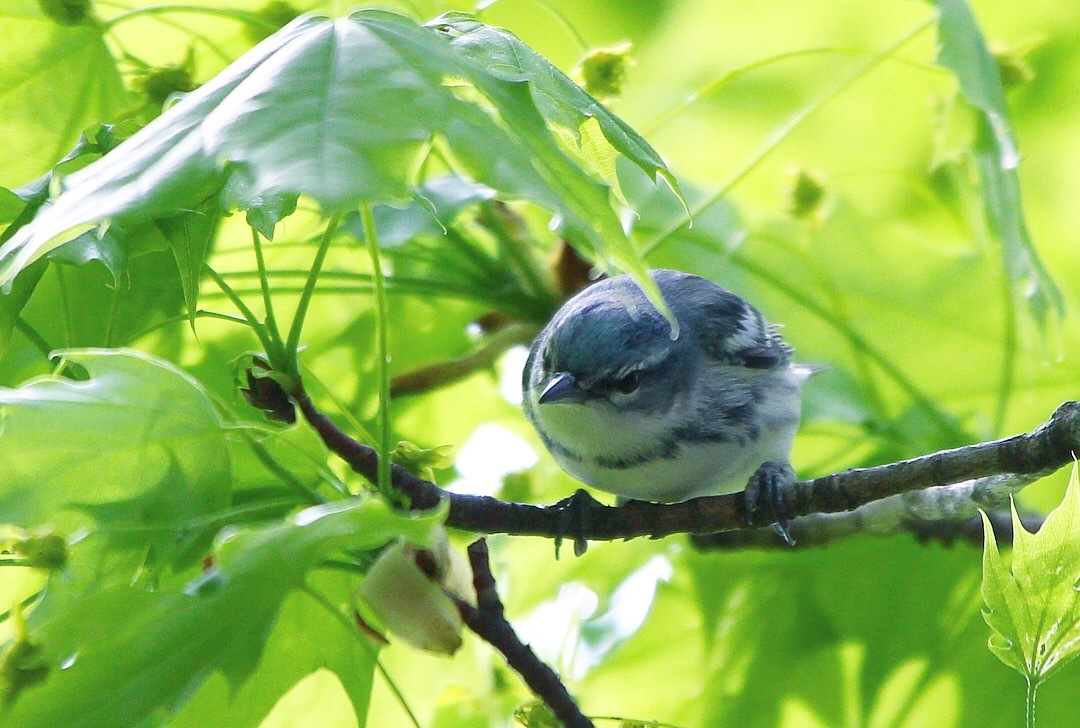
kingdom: Animalia
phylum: Chordata
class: Aves
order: Passeriformes
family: Parulidae
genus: Setophaga
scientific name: Setophaga cerulea
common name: Cerulean warbler
